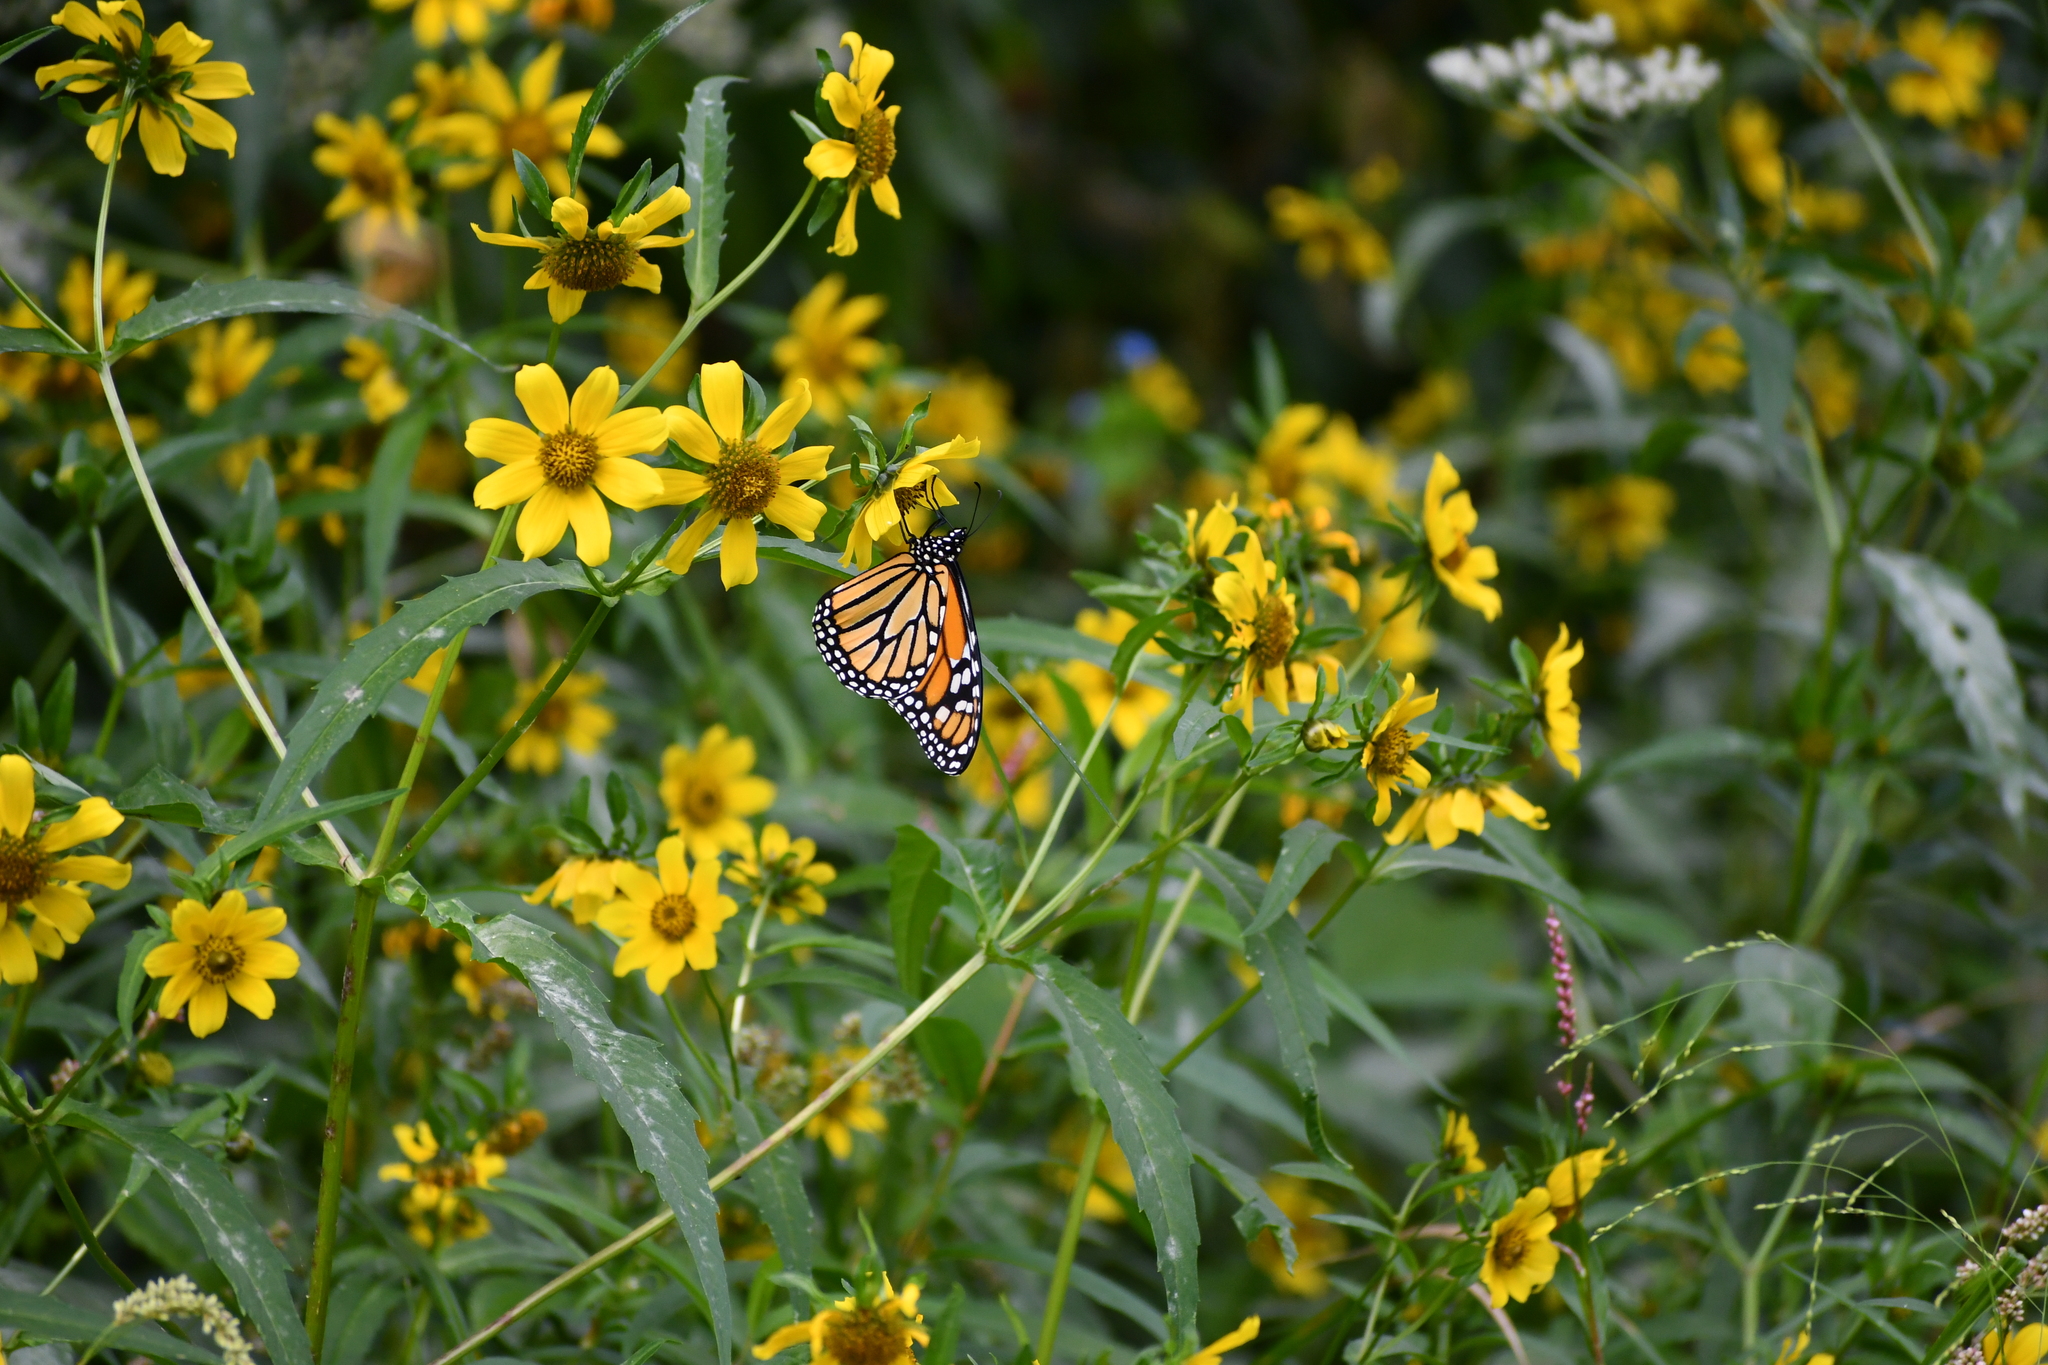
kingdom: Animalia
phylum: Arthropoda
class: Insecta
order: Lepidoptera
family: Nymphalidae
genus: Danaus
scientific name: Danaus plexippus
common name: Monarch
